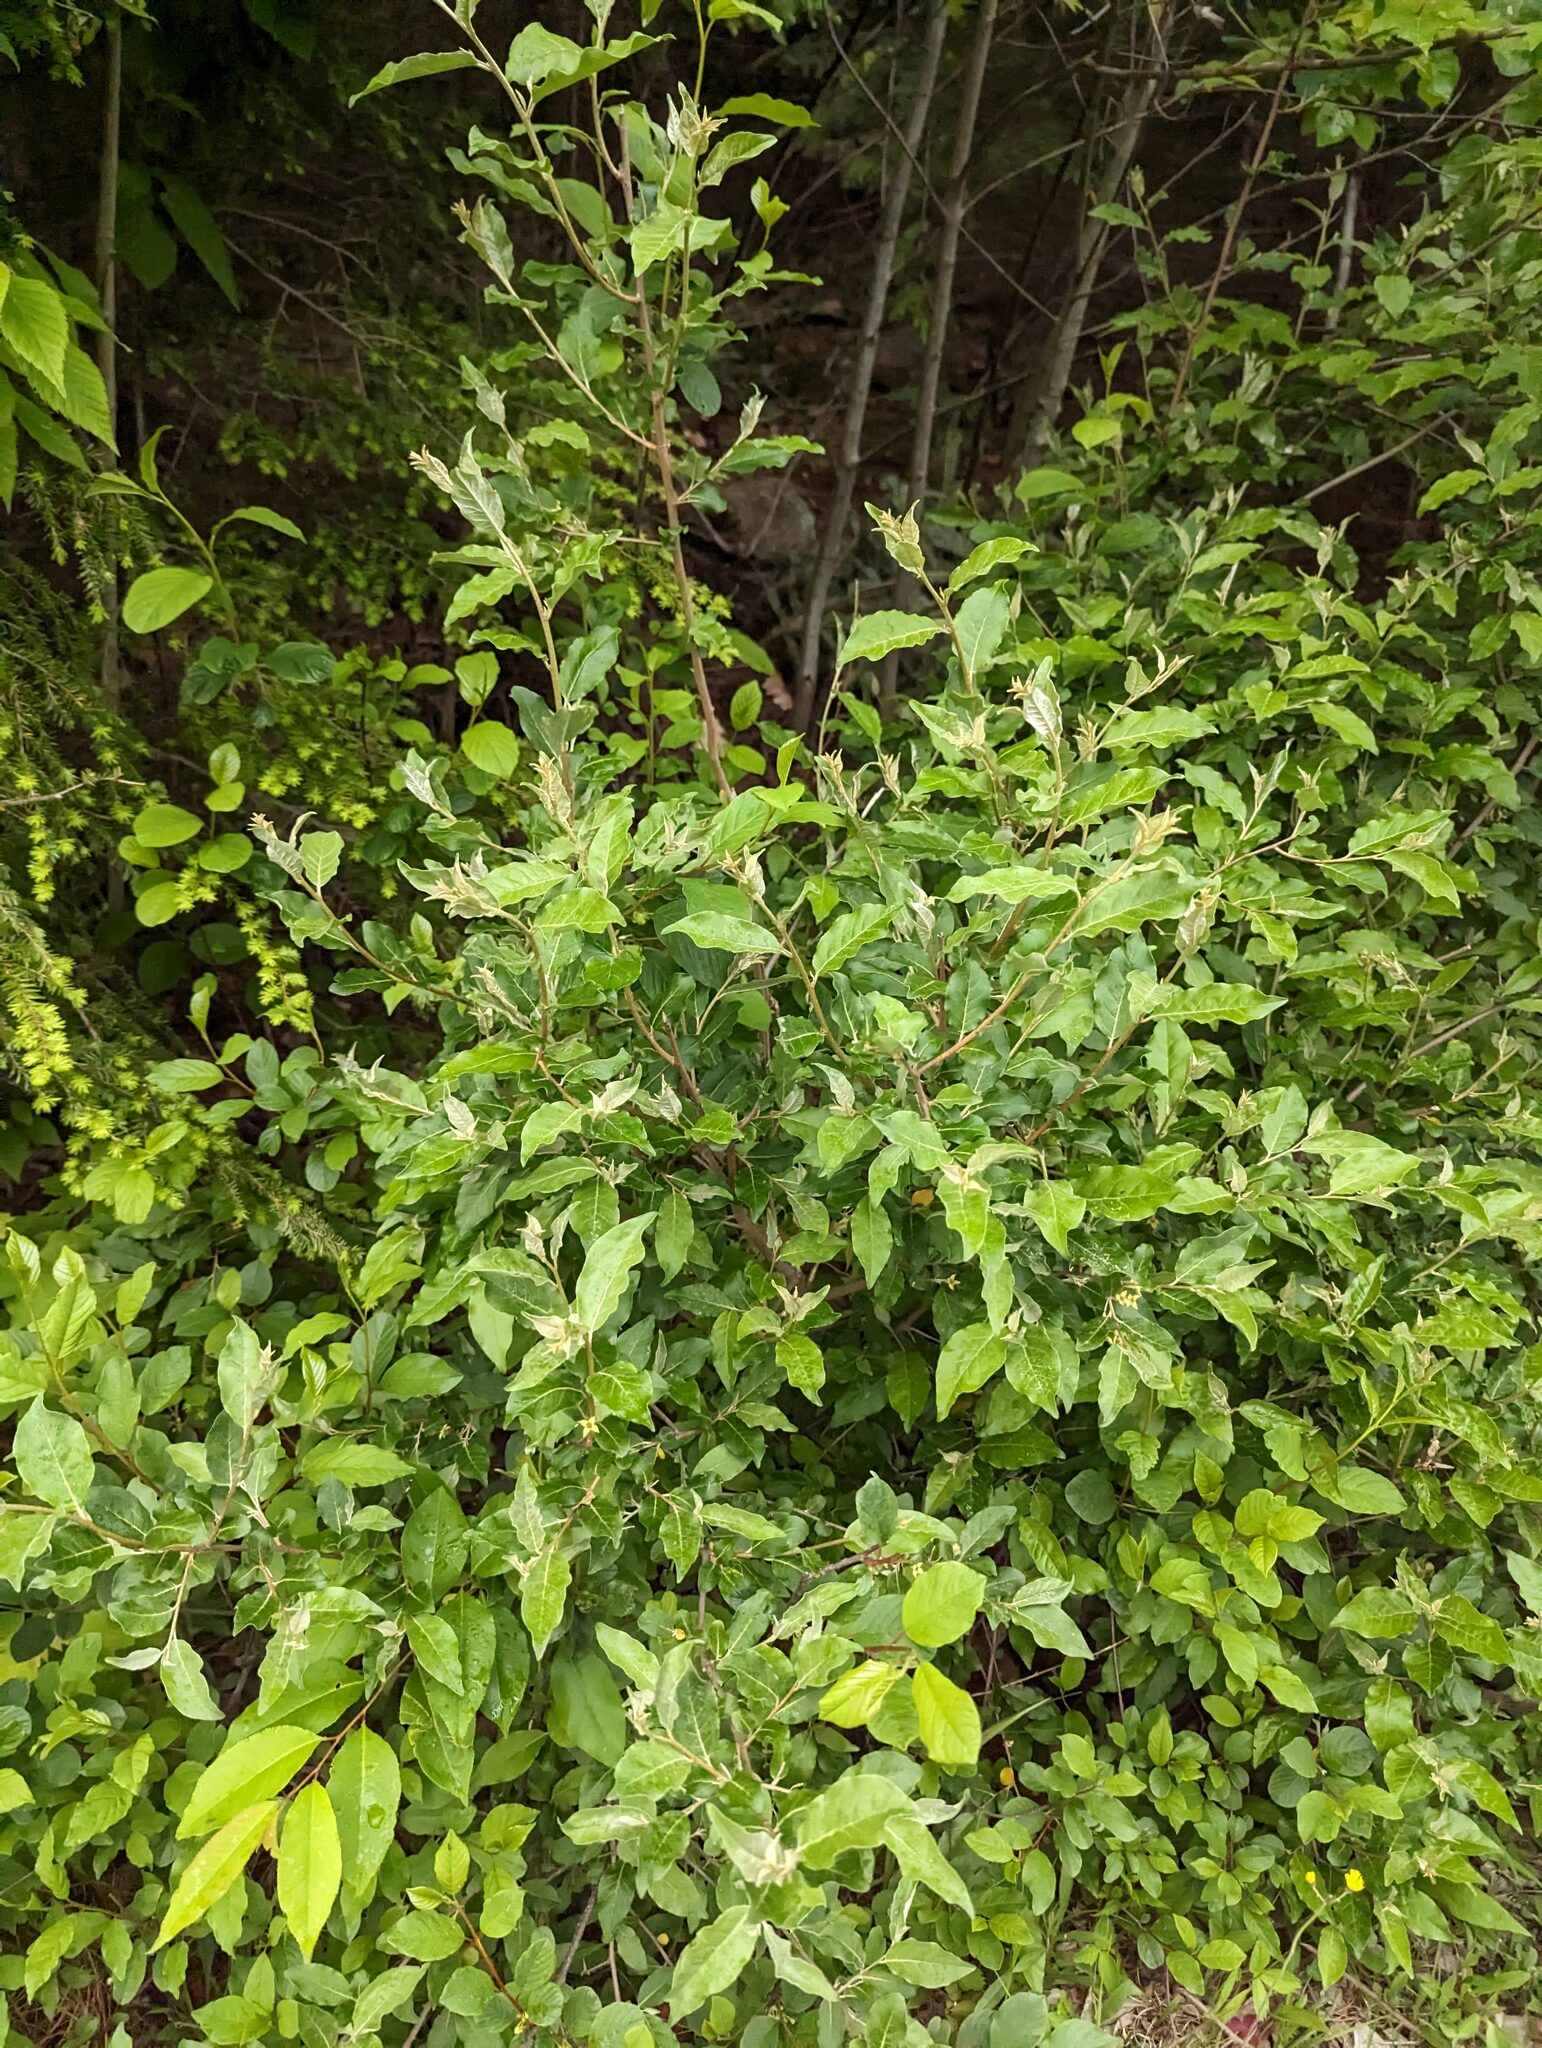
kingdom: Plantae
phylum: Tracheophyta
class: Magnoliopsida
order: Rosales
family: Elaeagnaceae
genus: Elaeagnus
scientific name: Elaeagnus umbellata
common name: Autumn olive
